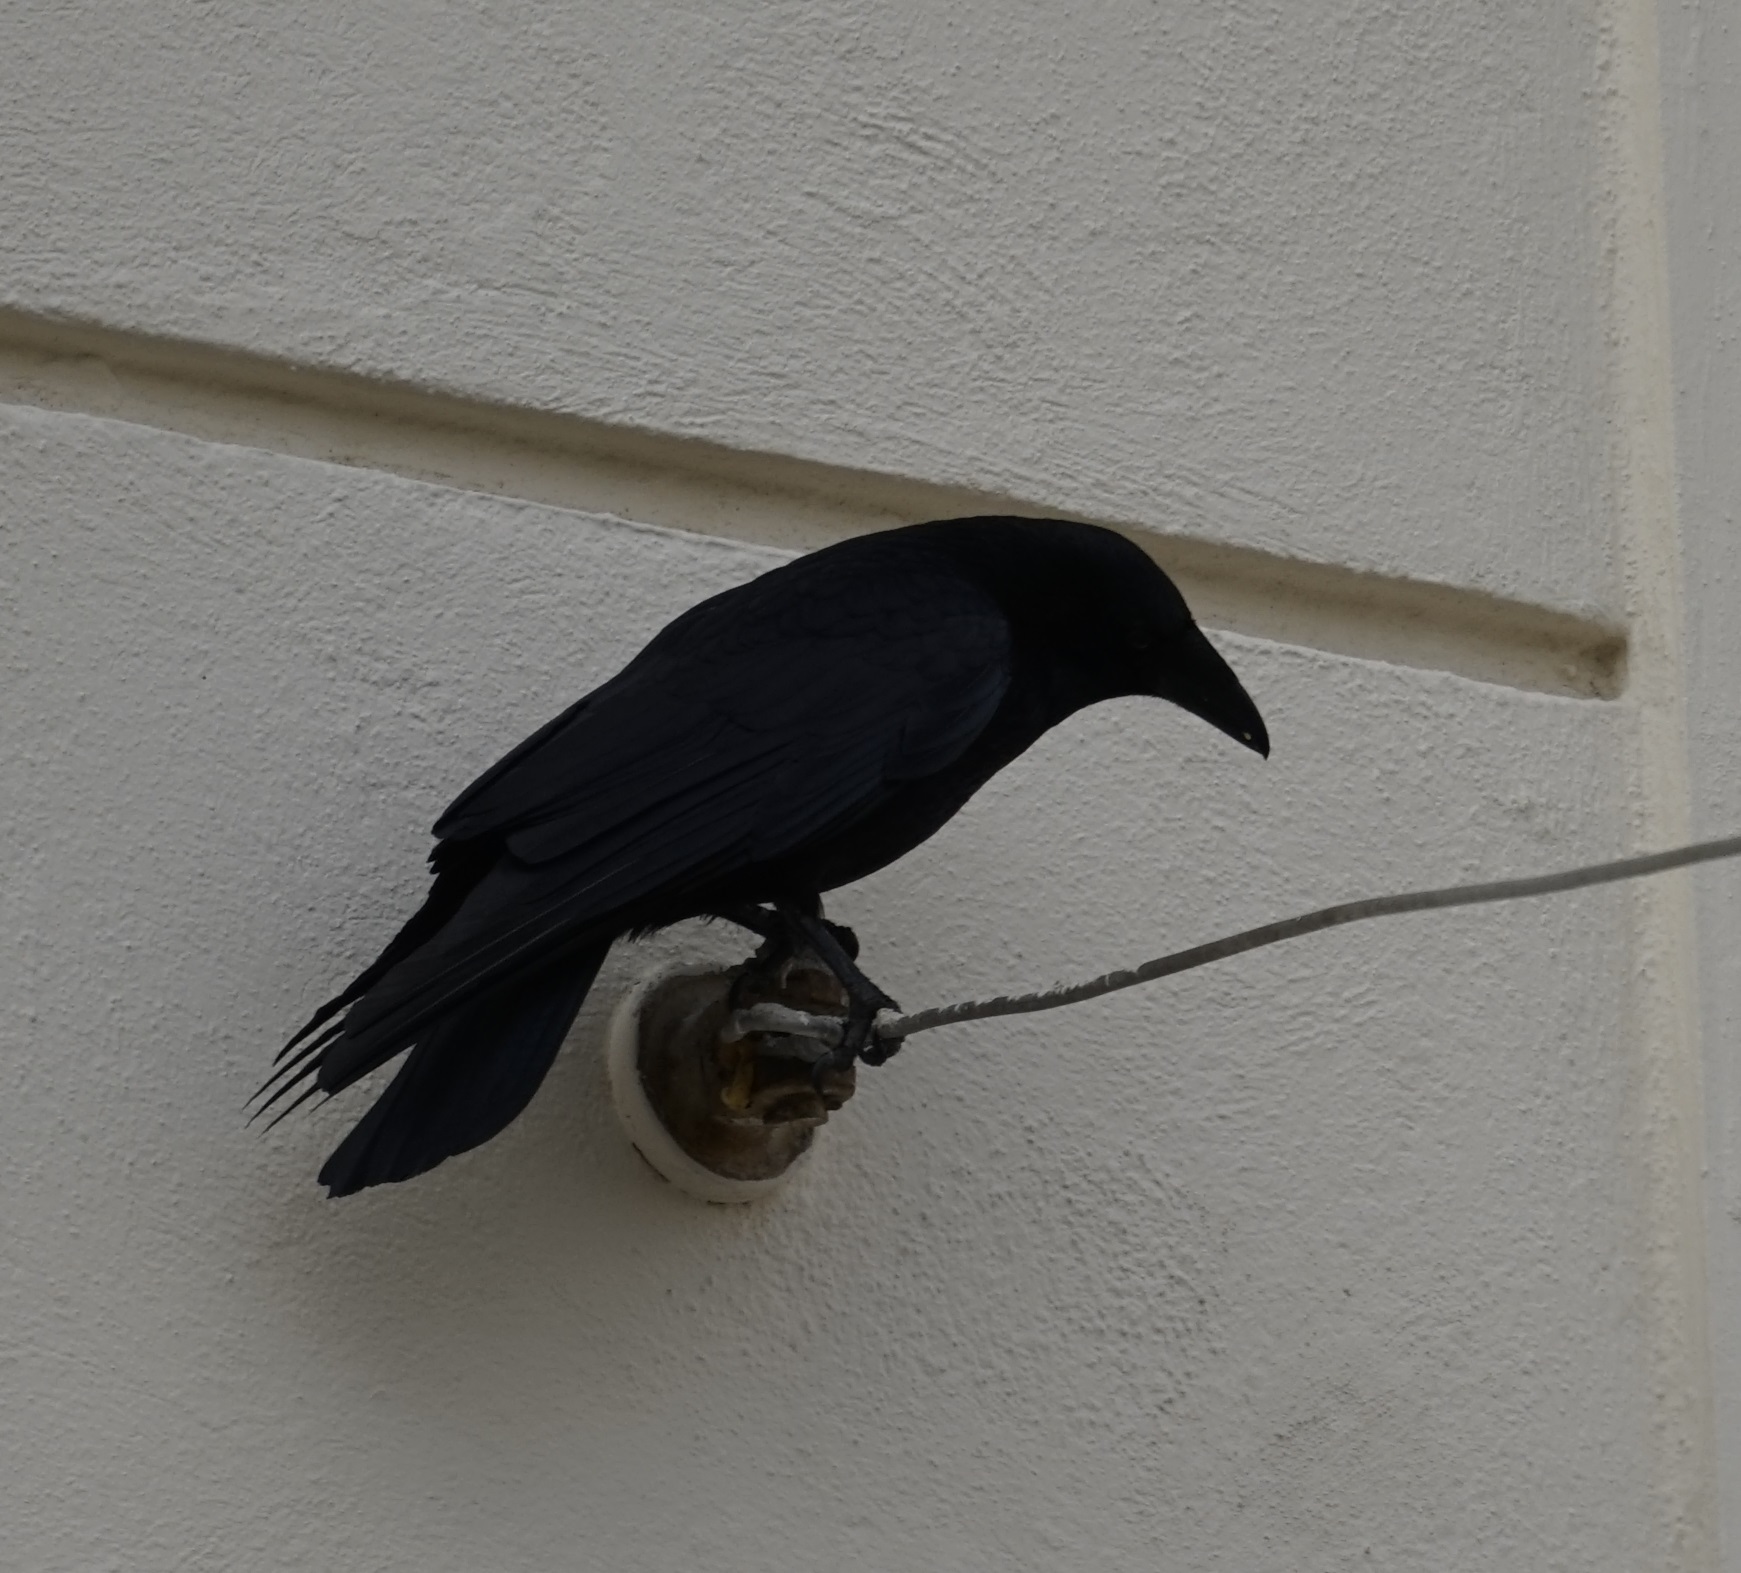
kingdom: Animalia
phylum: Chordata
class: Aves
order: Passeriformes
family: Corvidae
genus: Corvus
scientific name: Corvus corone
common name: Carrion crow
